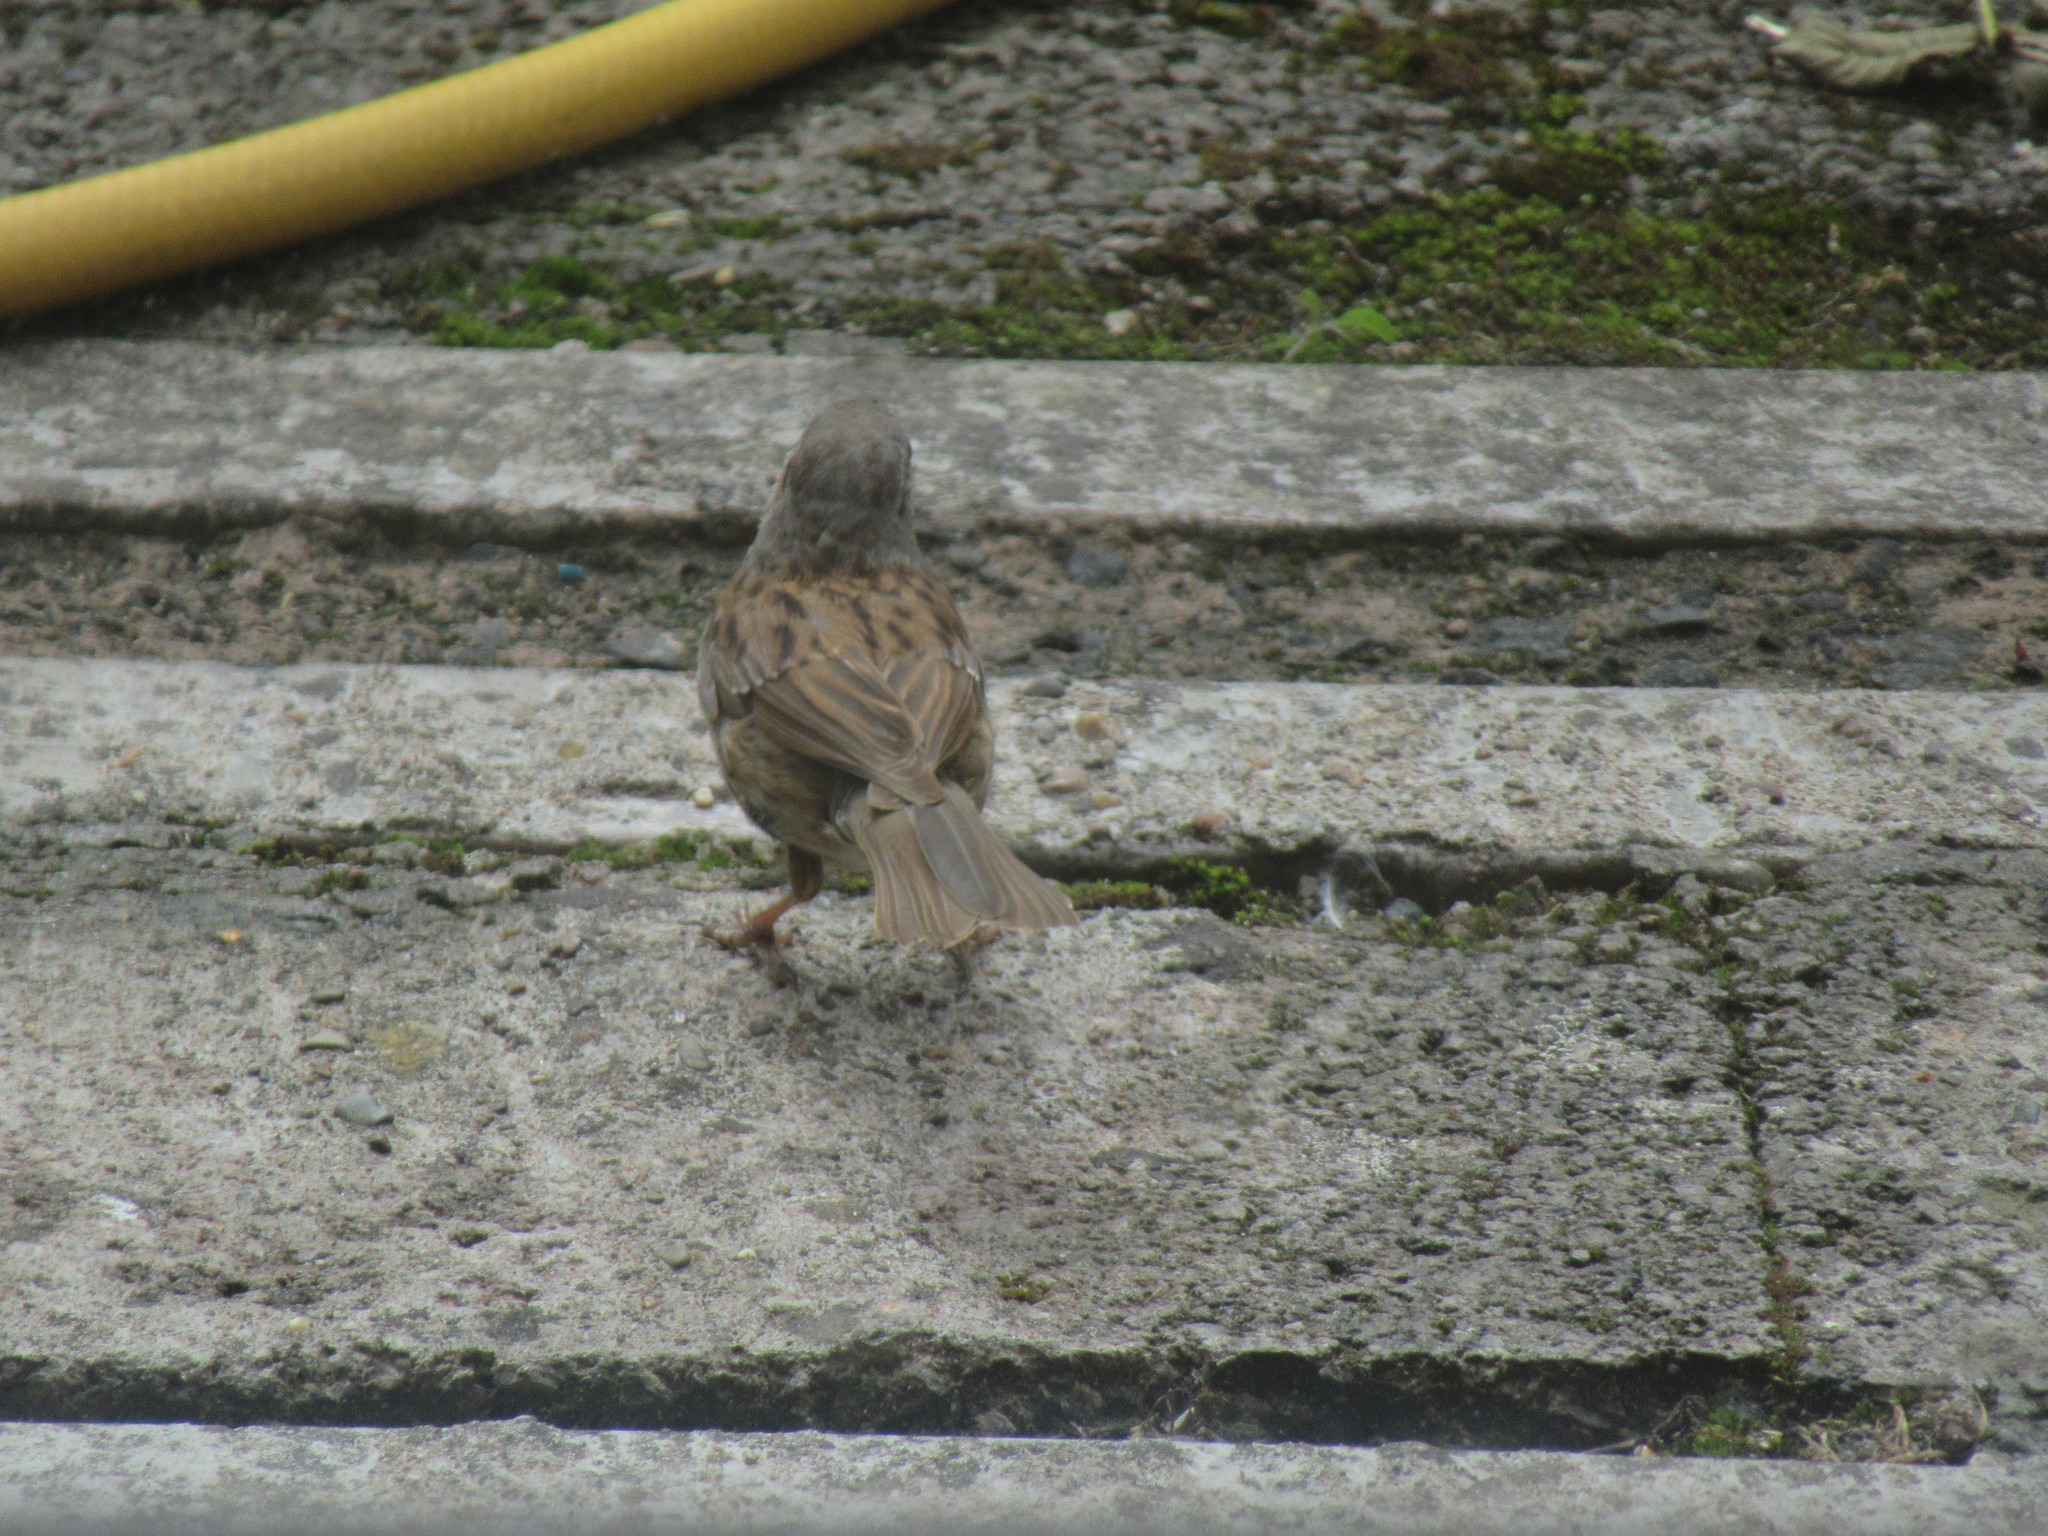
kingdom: Animalia
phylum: Chordata
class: Aves
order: Passeriformes
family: Prunellidae
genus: Prunella
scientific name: Prunella modularis
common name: Dunnock
